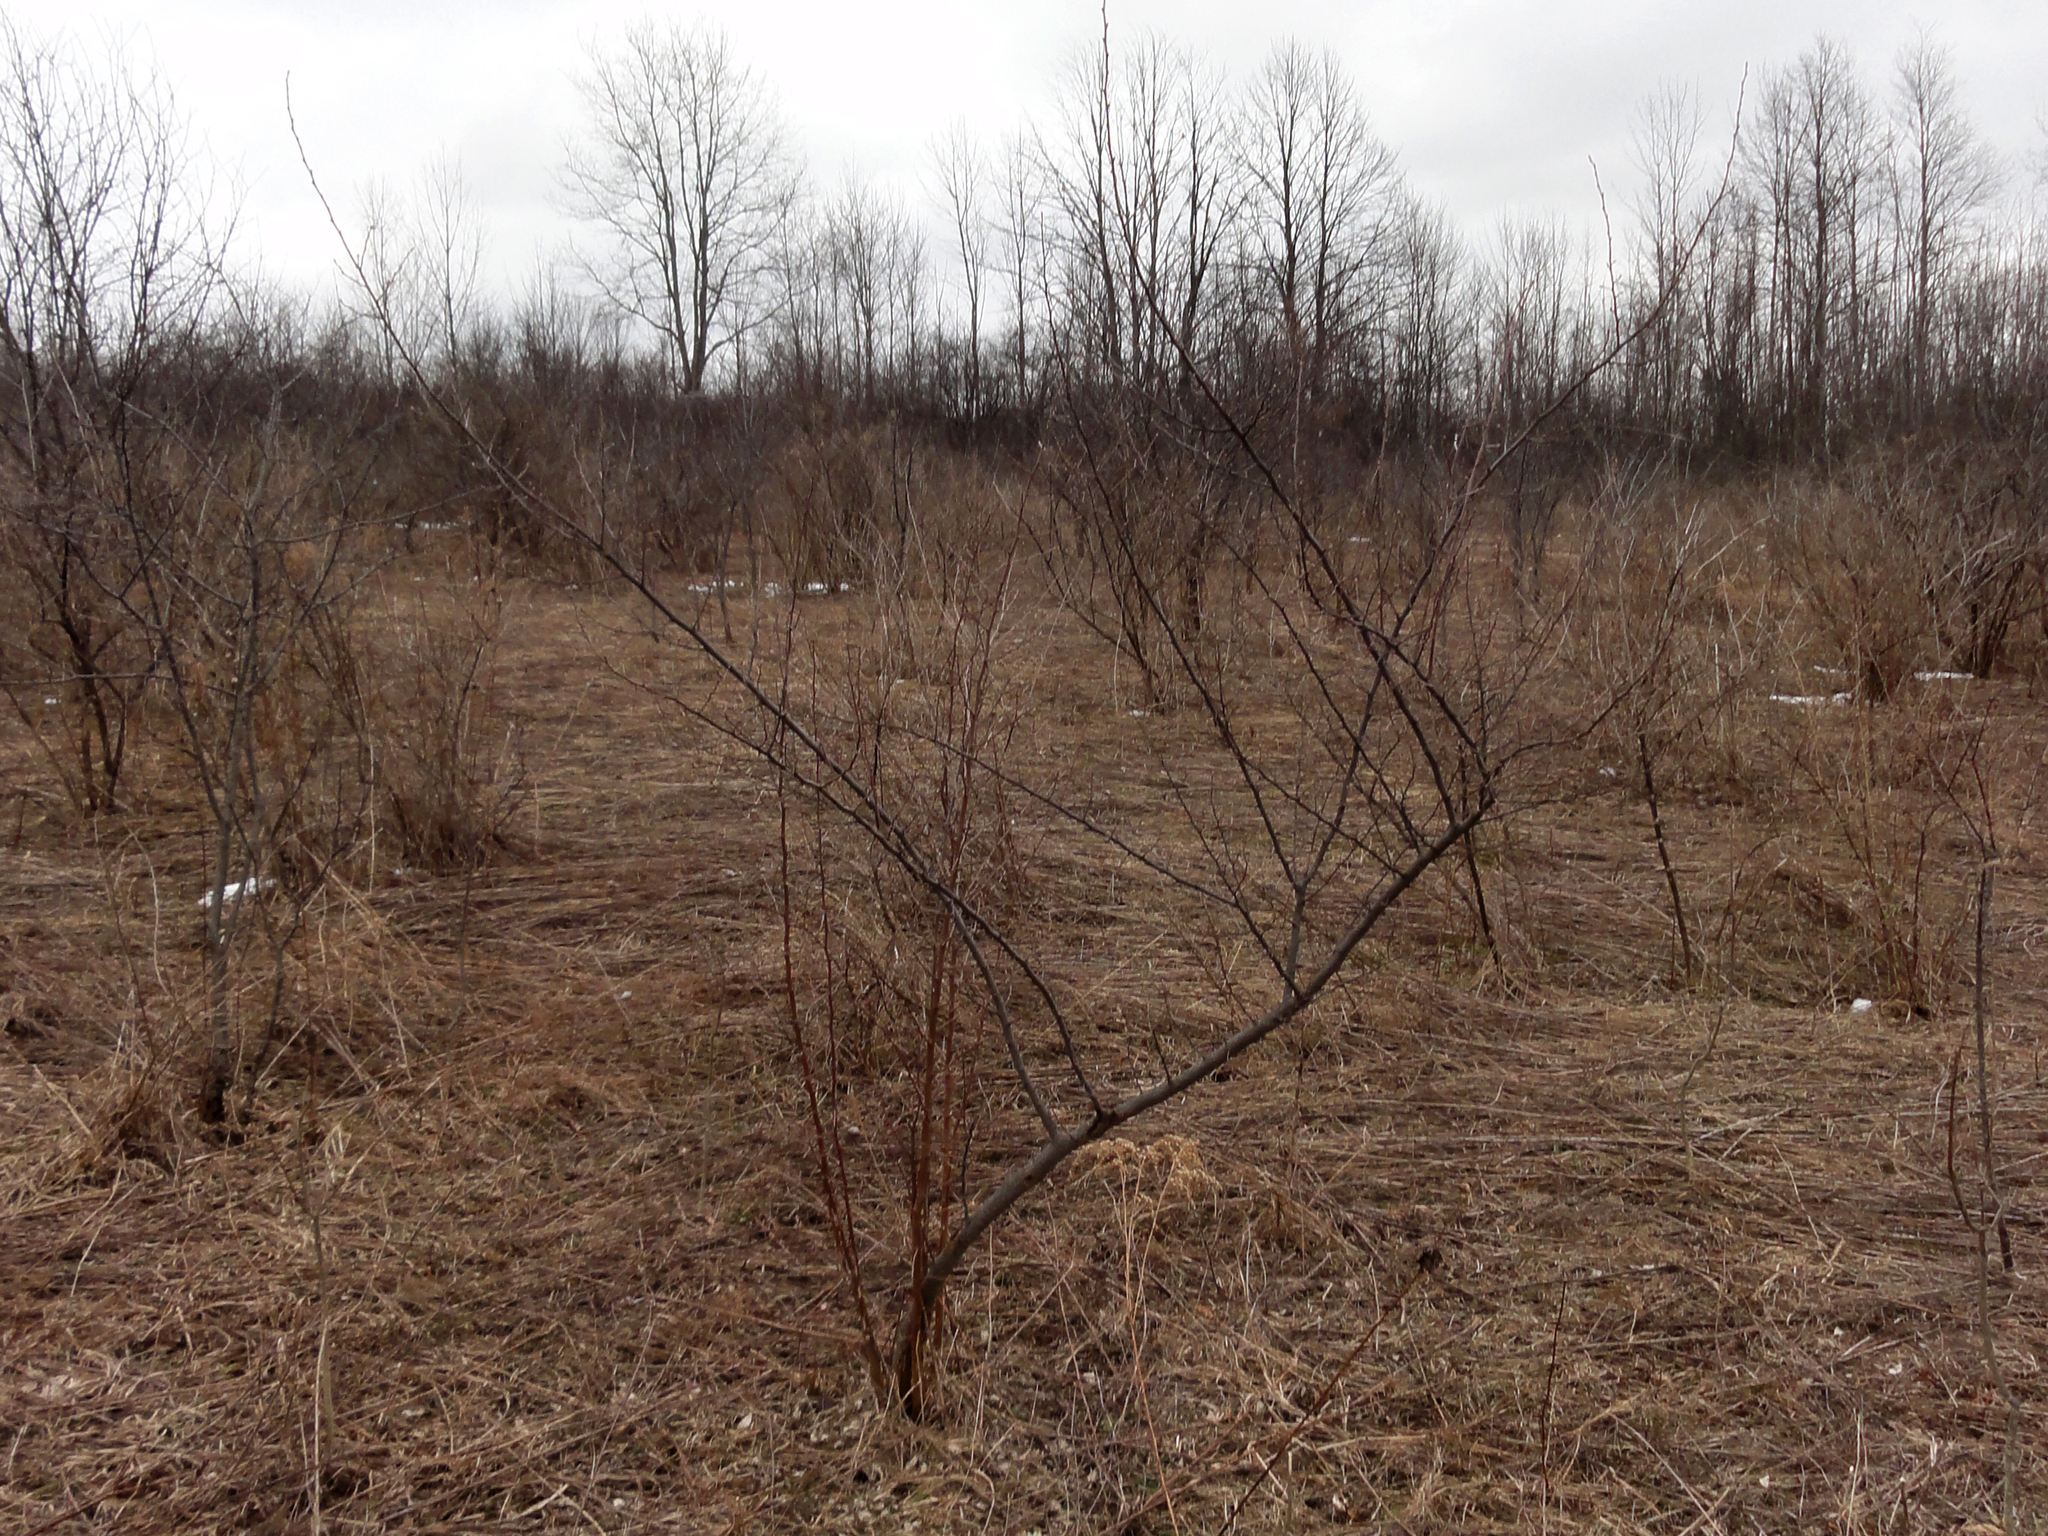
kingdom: Plantae
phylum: Tracheophyta
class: Magnoliopsida
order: Rosales
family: Elaeagnaceae
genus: Elaeagnus
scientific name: Elaeagnus umbellata
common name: Autumn olive
